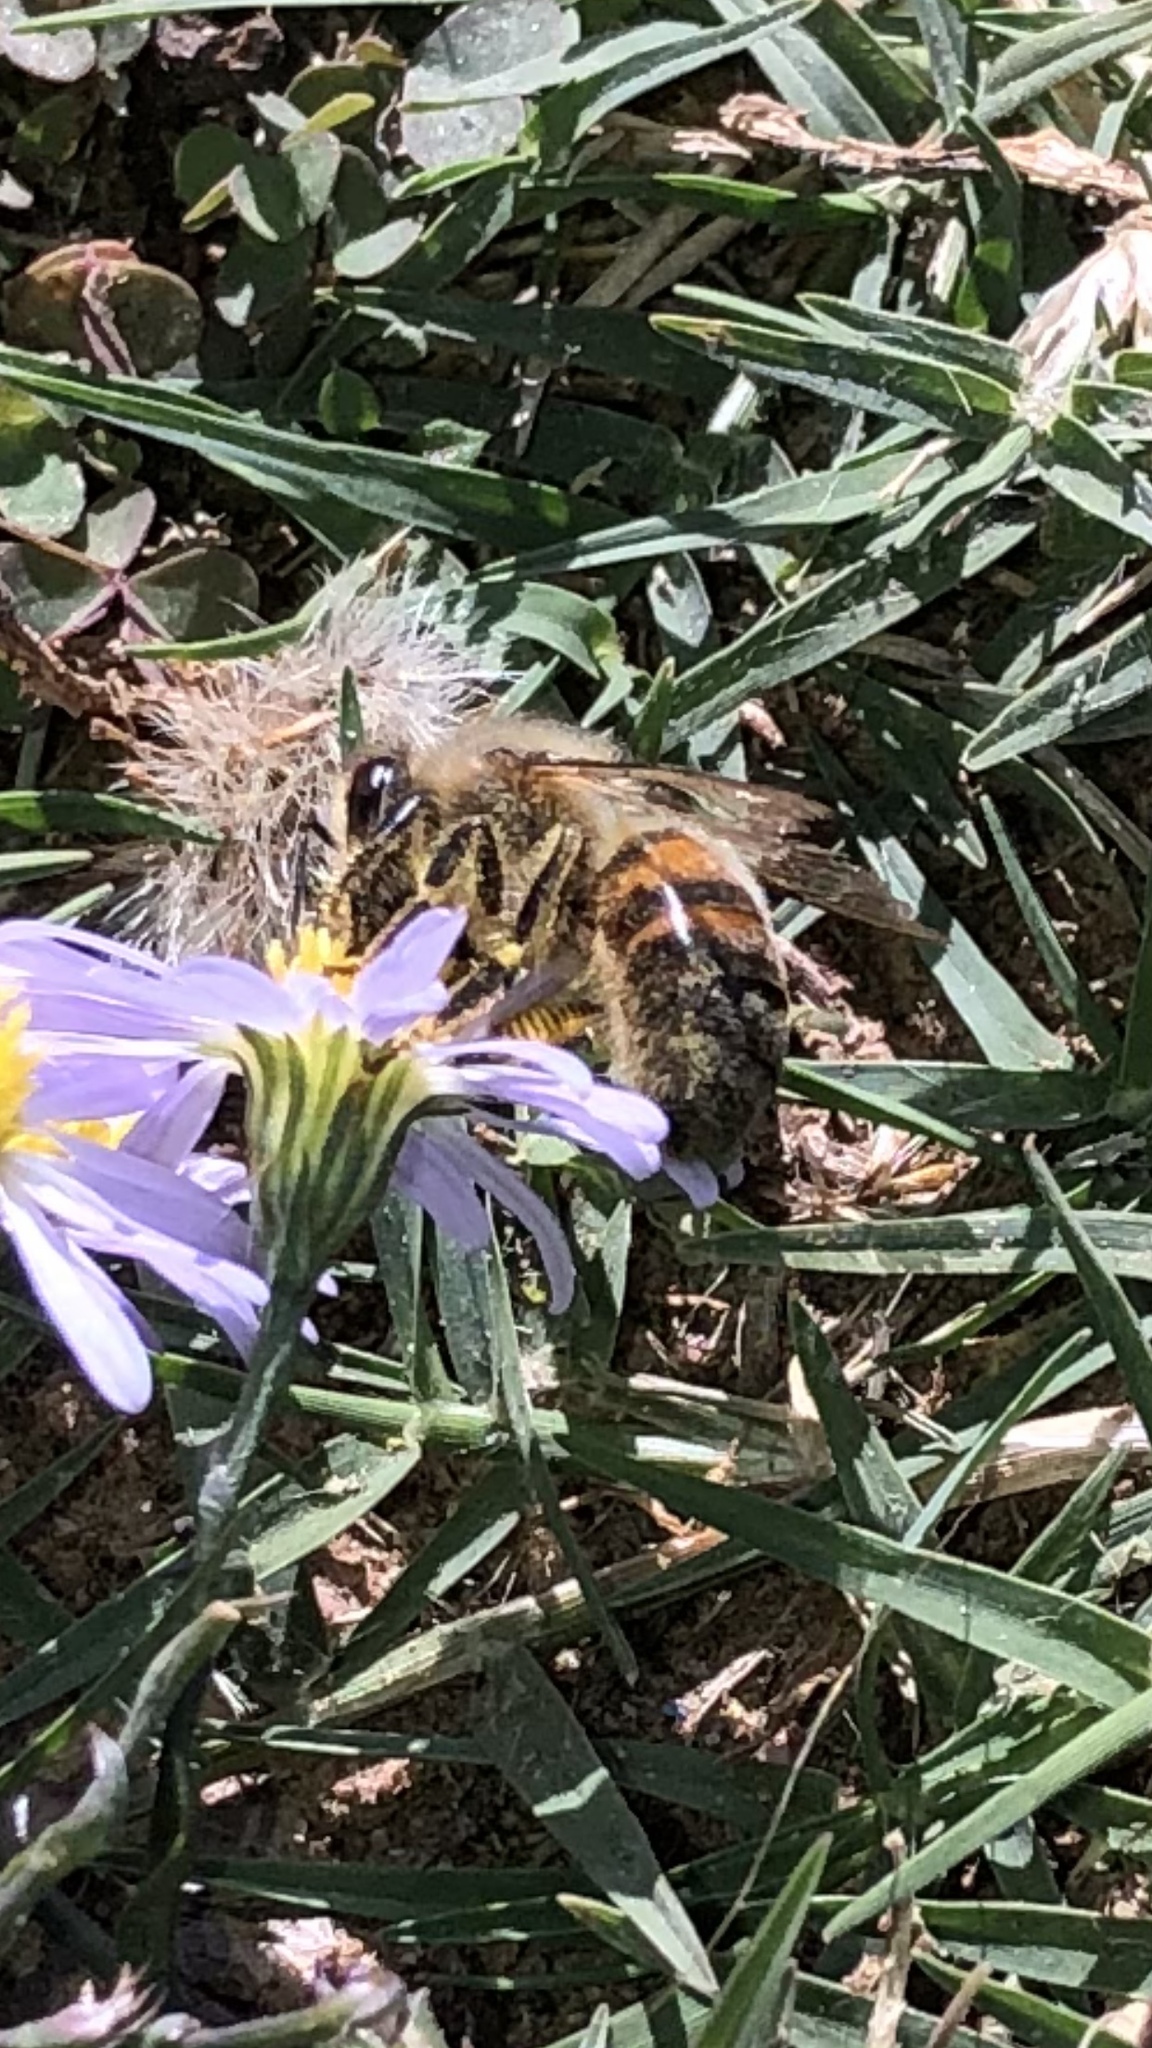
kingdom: Animalia
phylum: Arthropoda
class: Insecta
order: Hymenoptera
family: Apidae
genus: Apis
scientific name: Apis mellifera
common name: Honey bee
